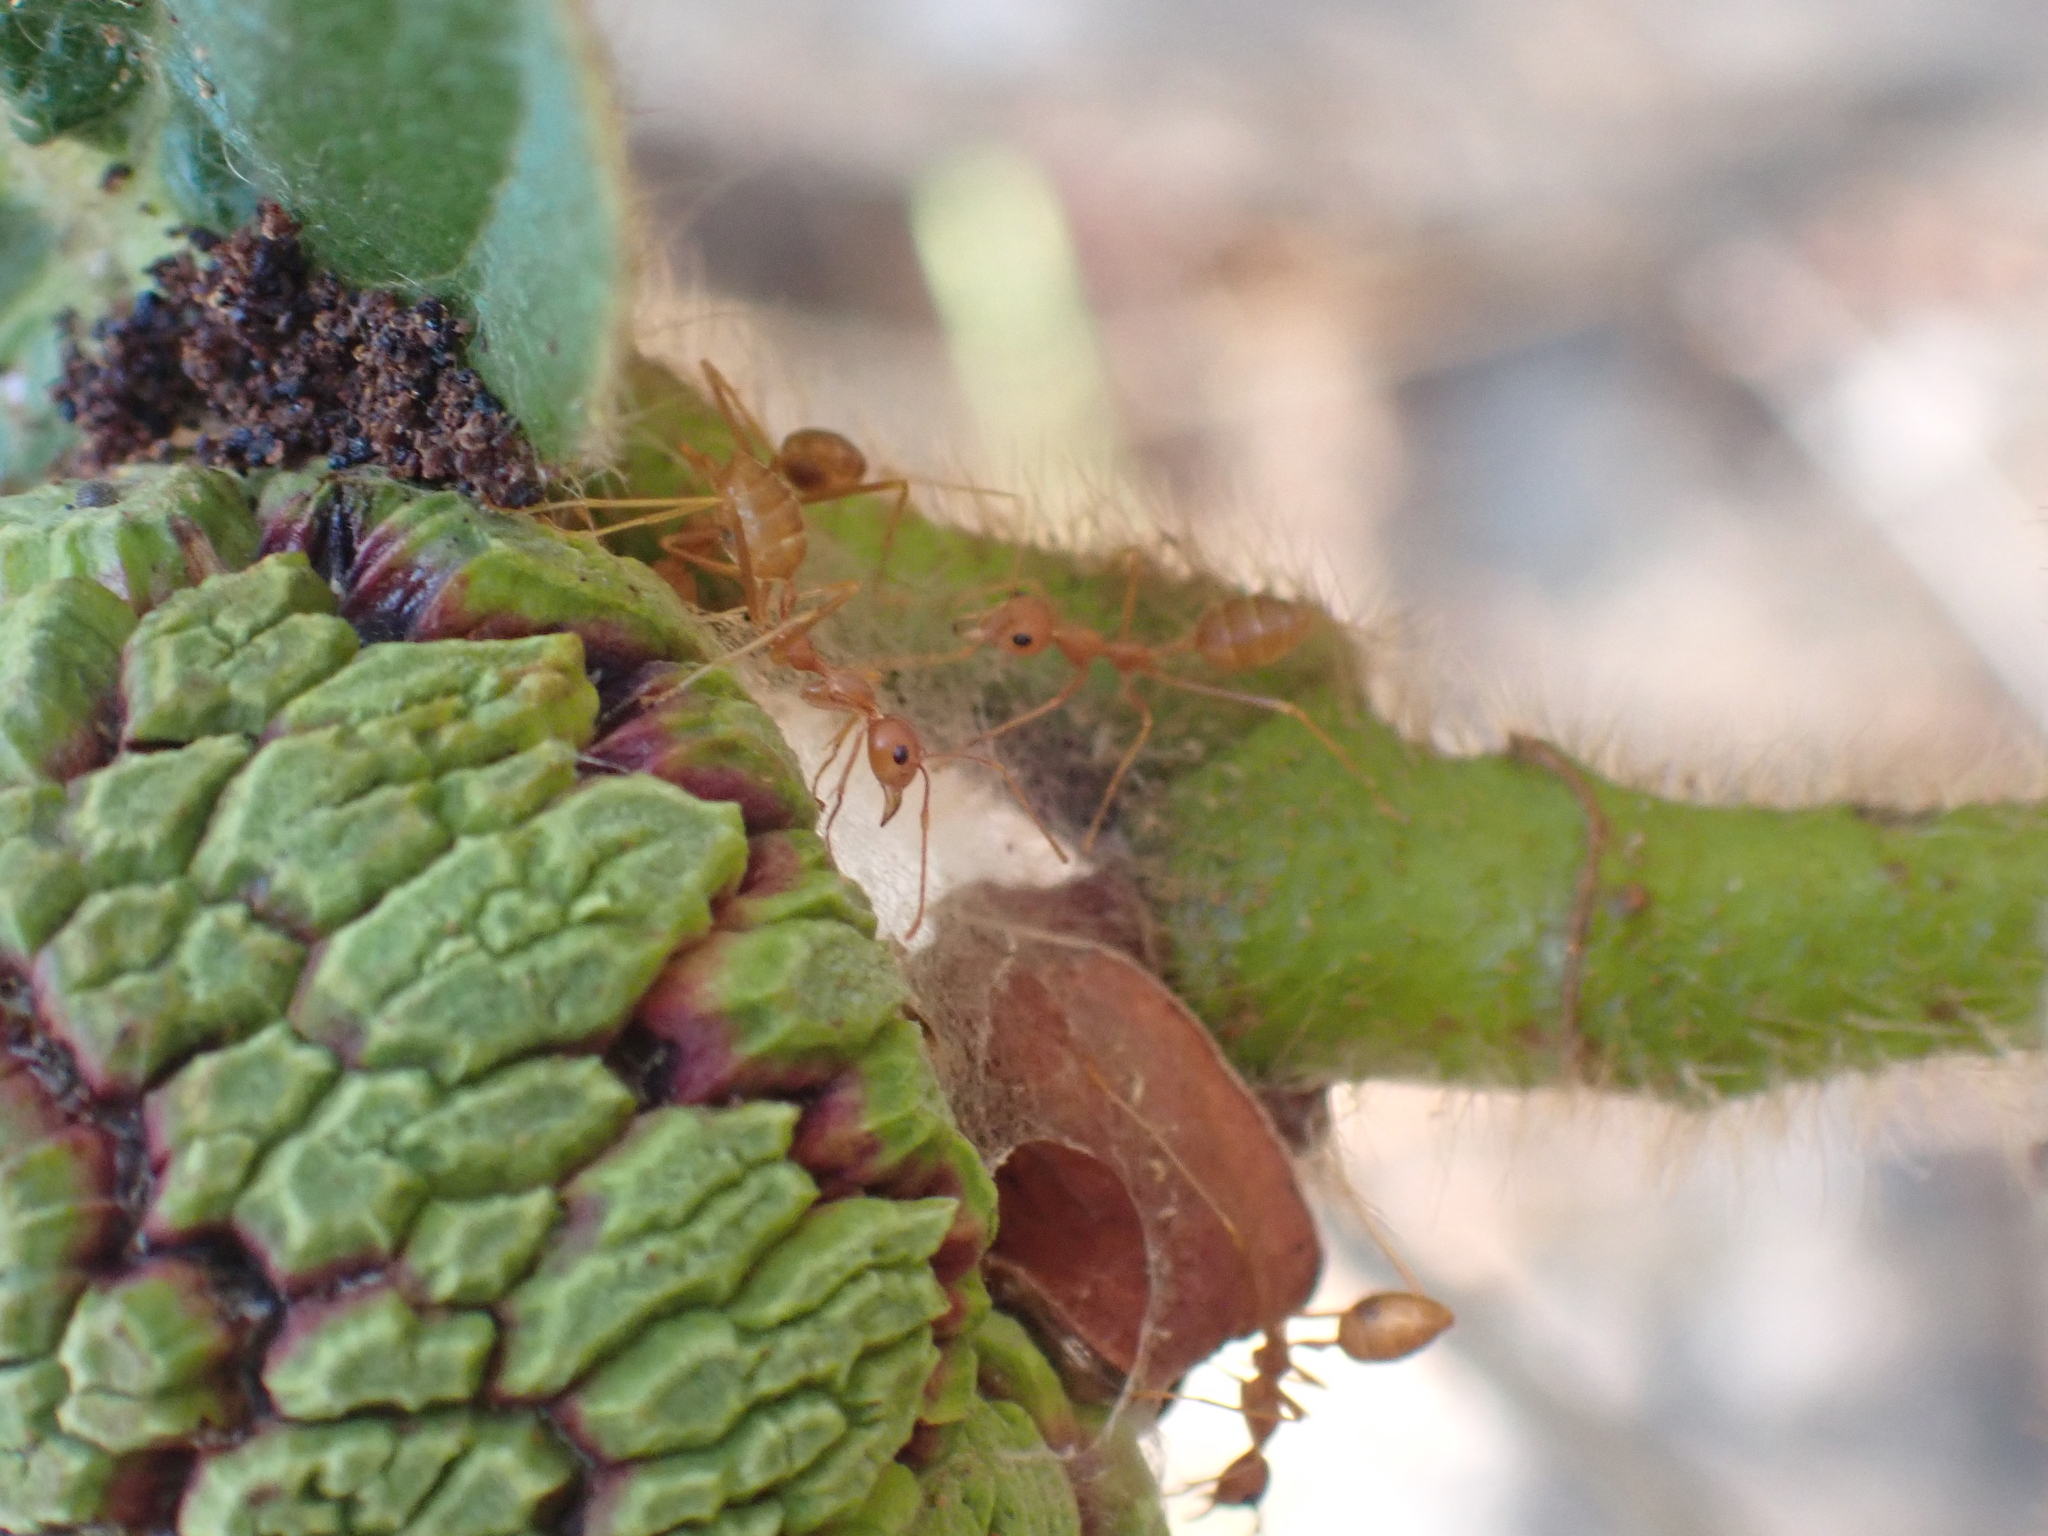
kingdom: Animalia
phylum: Arthropoda
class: Insecta
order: Hymenoptera
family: Formicidae
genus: Oecophylla
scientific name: Oecophylla smaragdina
